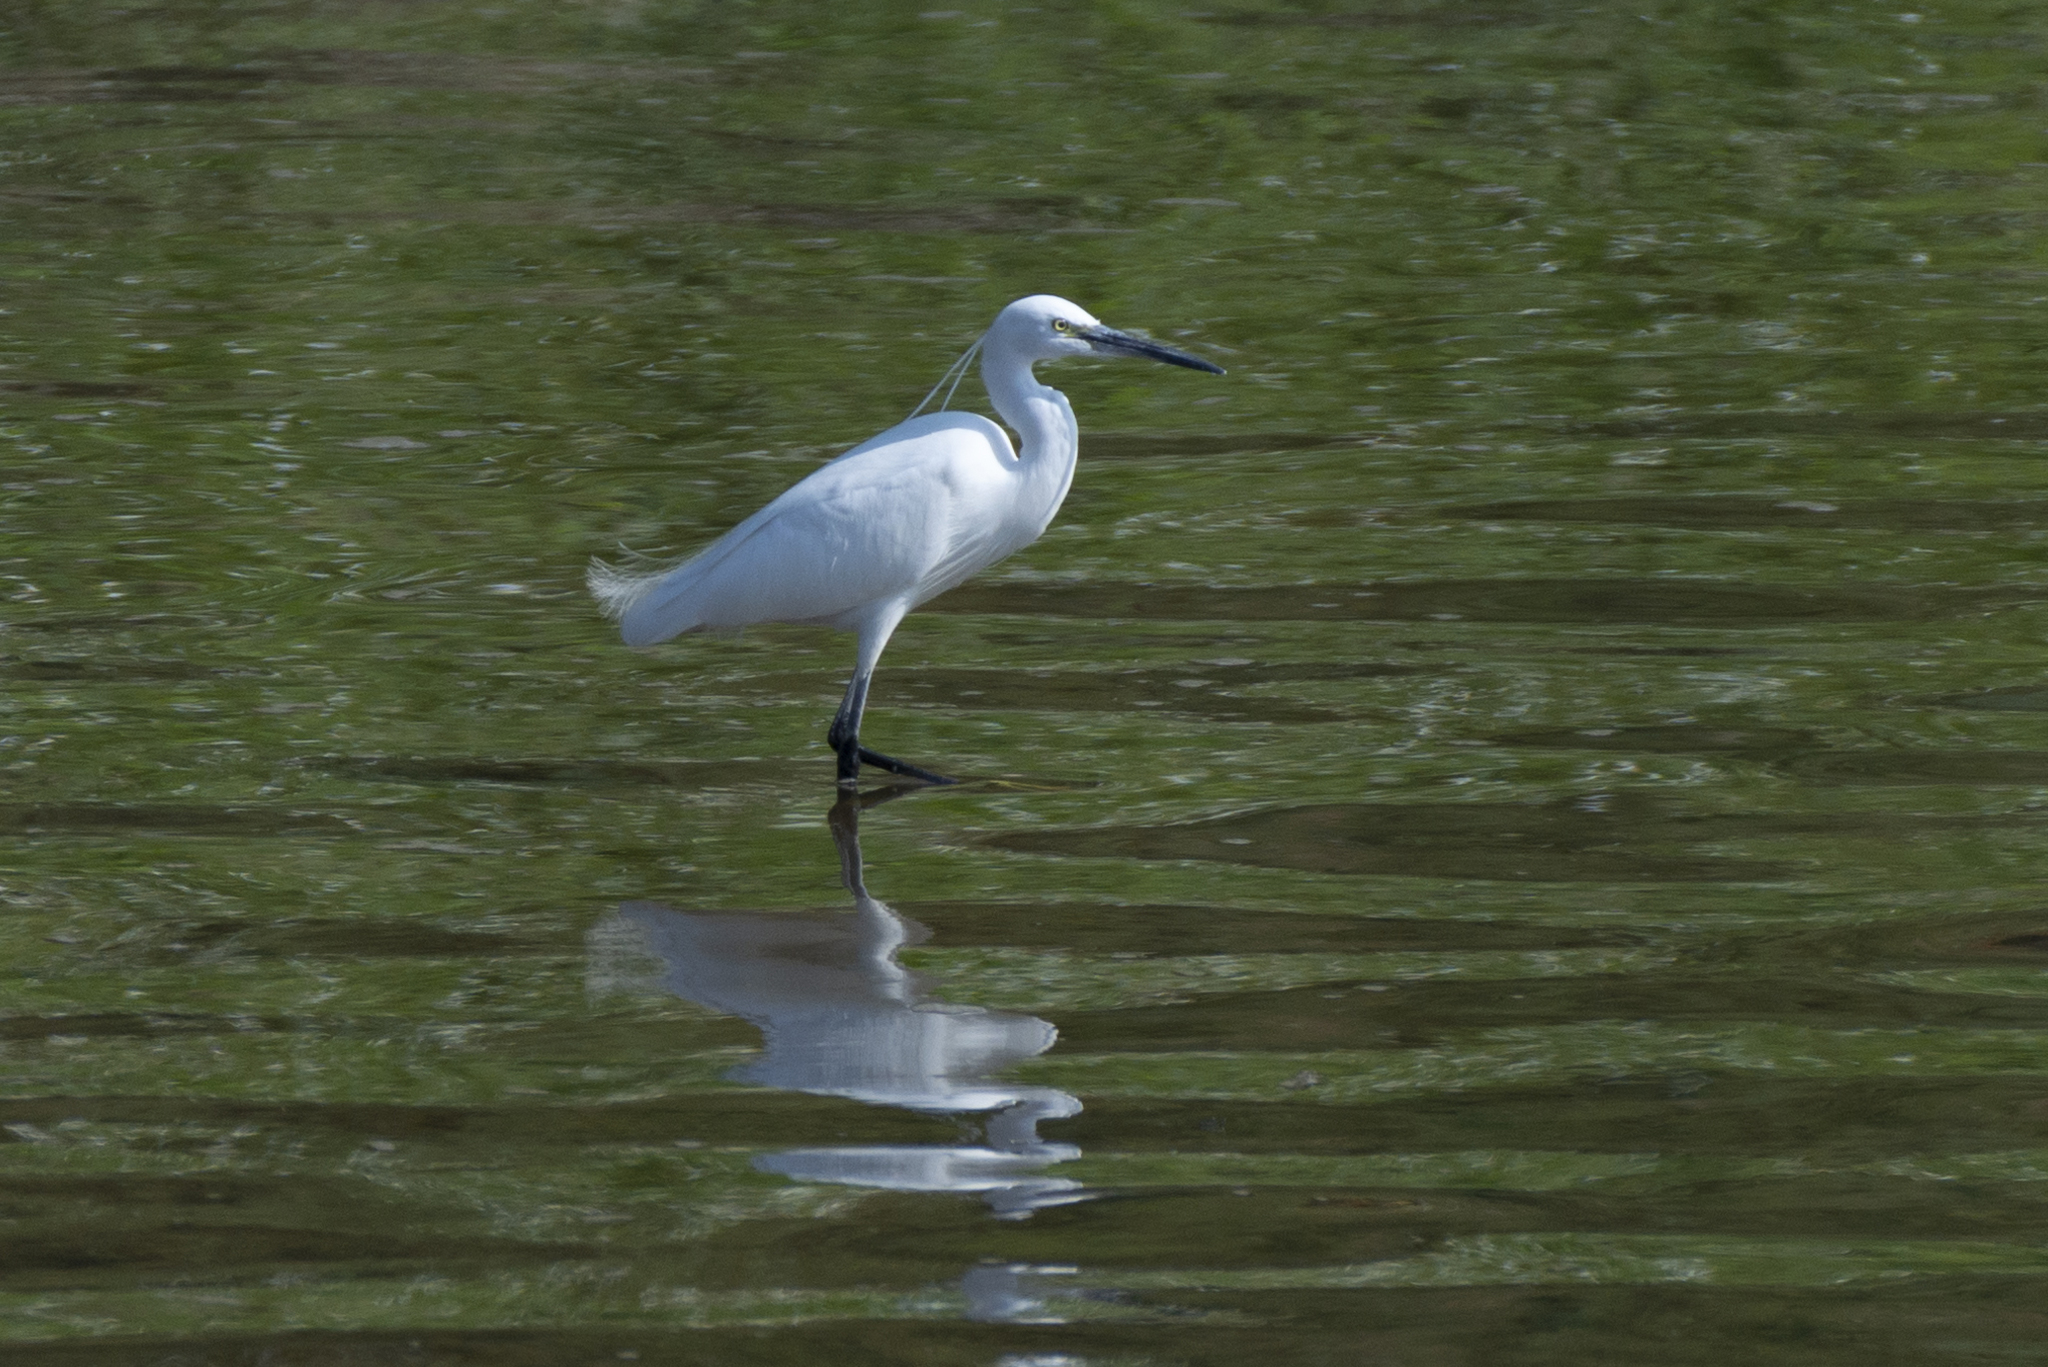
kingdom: Animalia
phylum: Chordata
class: Aves
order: Pelecaniformes
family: Ardeidae
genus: Egretta
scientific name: Egretta garzetta
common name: Little egret
